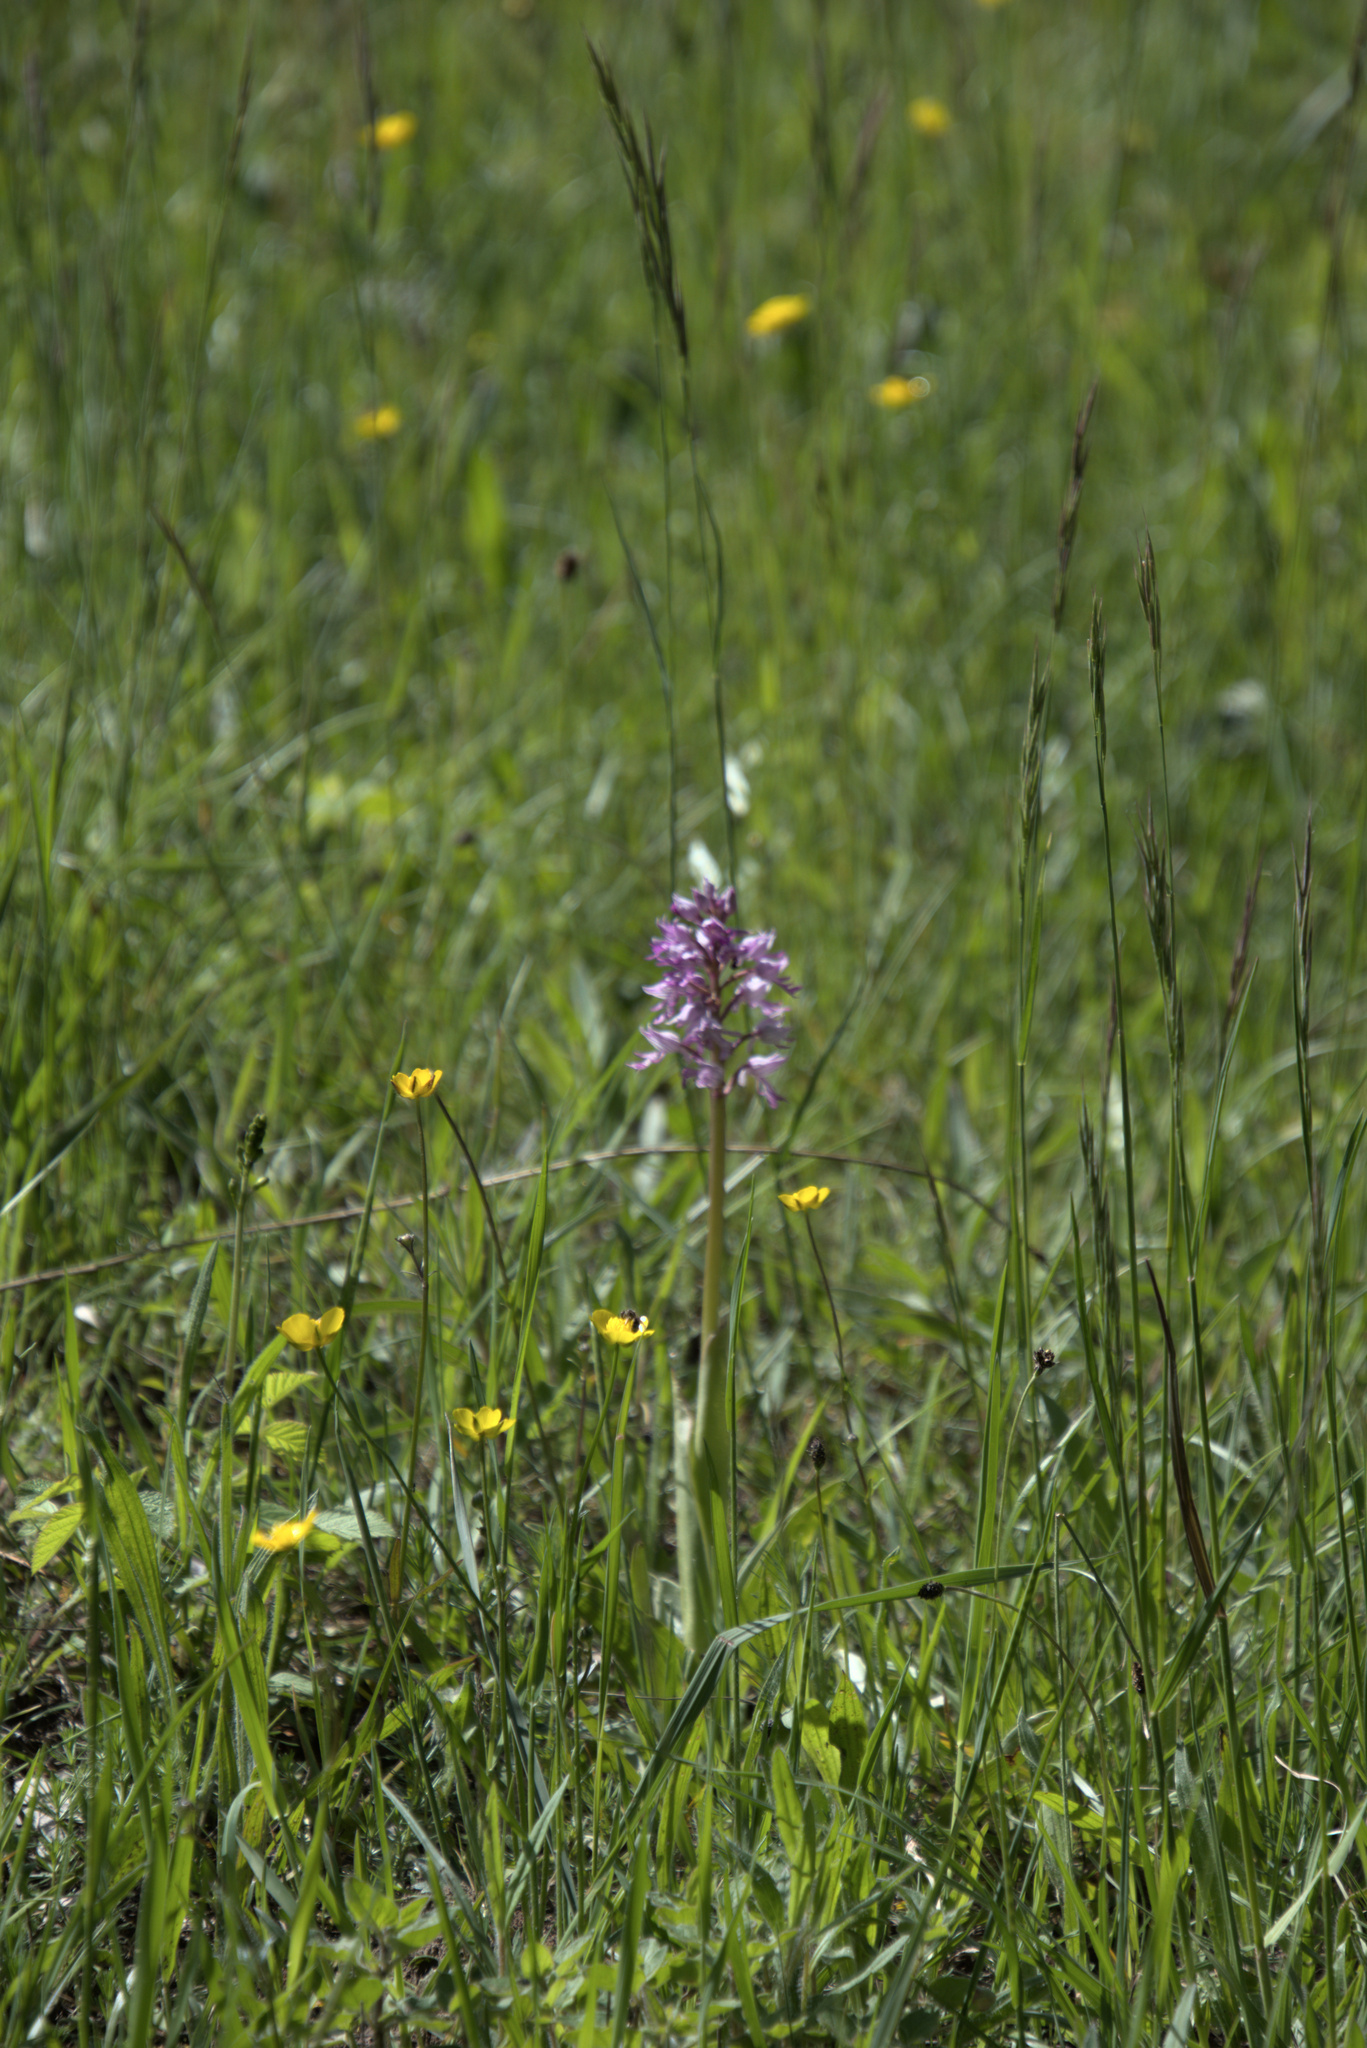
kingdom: Plantae
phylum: Tracheophyta
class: Liliopsida
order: Asparagales
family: Orchidaceae
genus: Orchis
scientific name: Orchis militaris
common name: Military orchid
